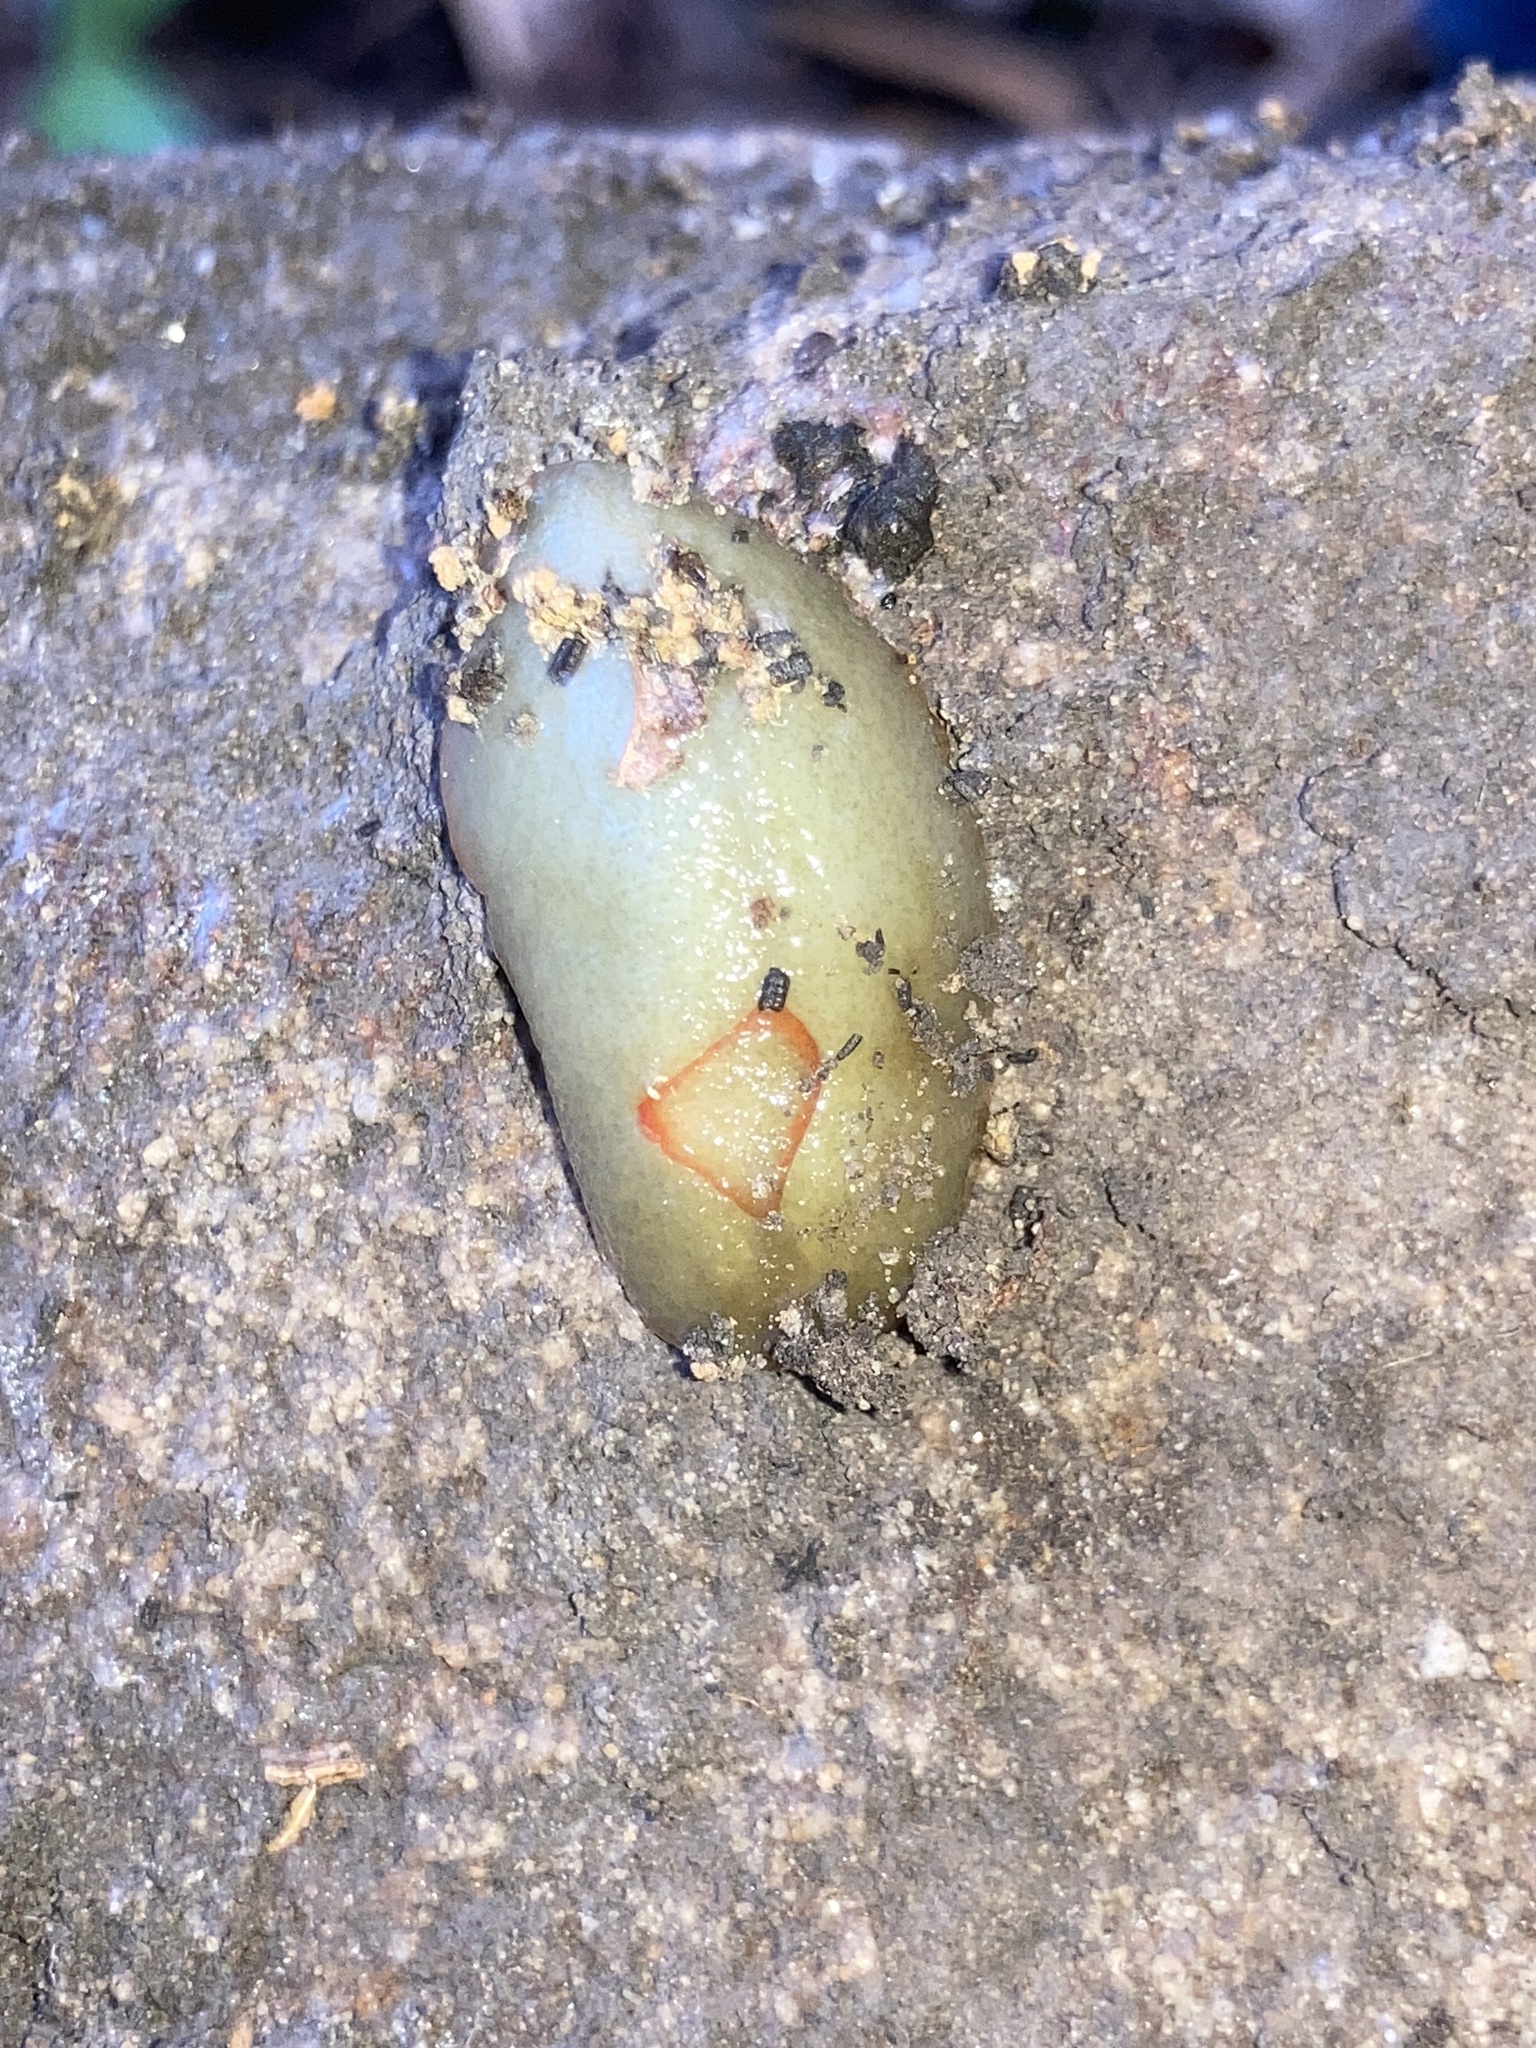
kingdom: Animalia
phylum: Mollusca
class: Gastropoda
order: Stylommatophora
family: Athoracophoridae
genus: Triboniophorus
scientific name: Triboniophorus graeffei
